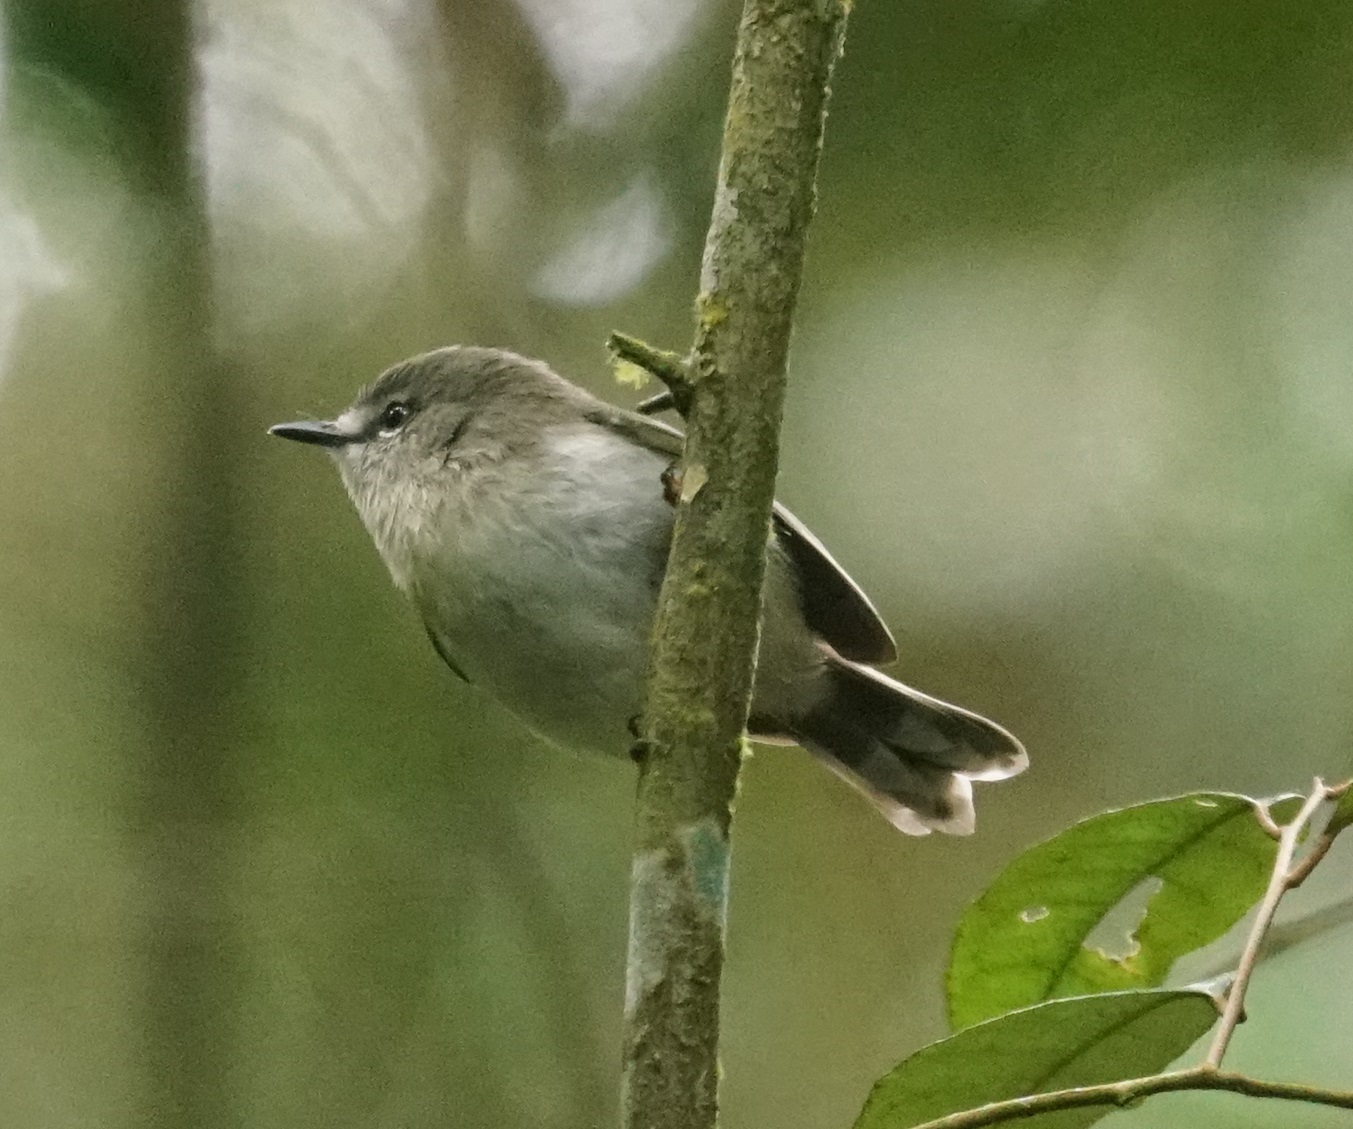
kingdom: Animalia
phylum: Chordata
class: Aves
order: Passeriformes
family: Acanthizidae
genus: Gerygone
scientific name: Gerygone mouki
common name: Brown gerygone
